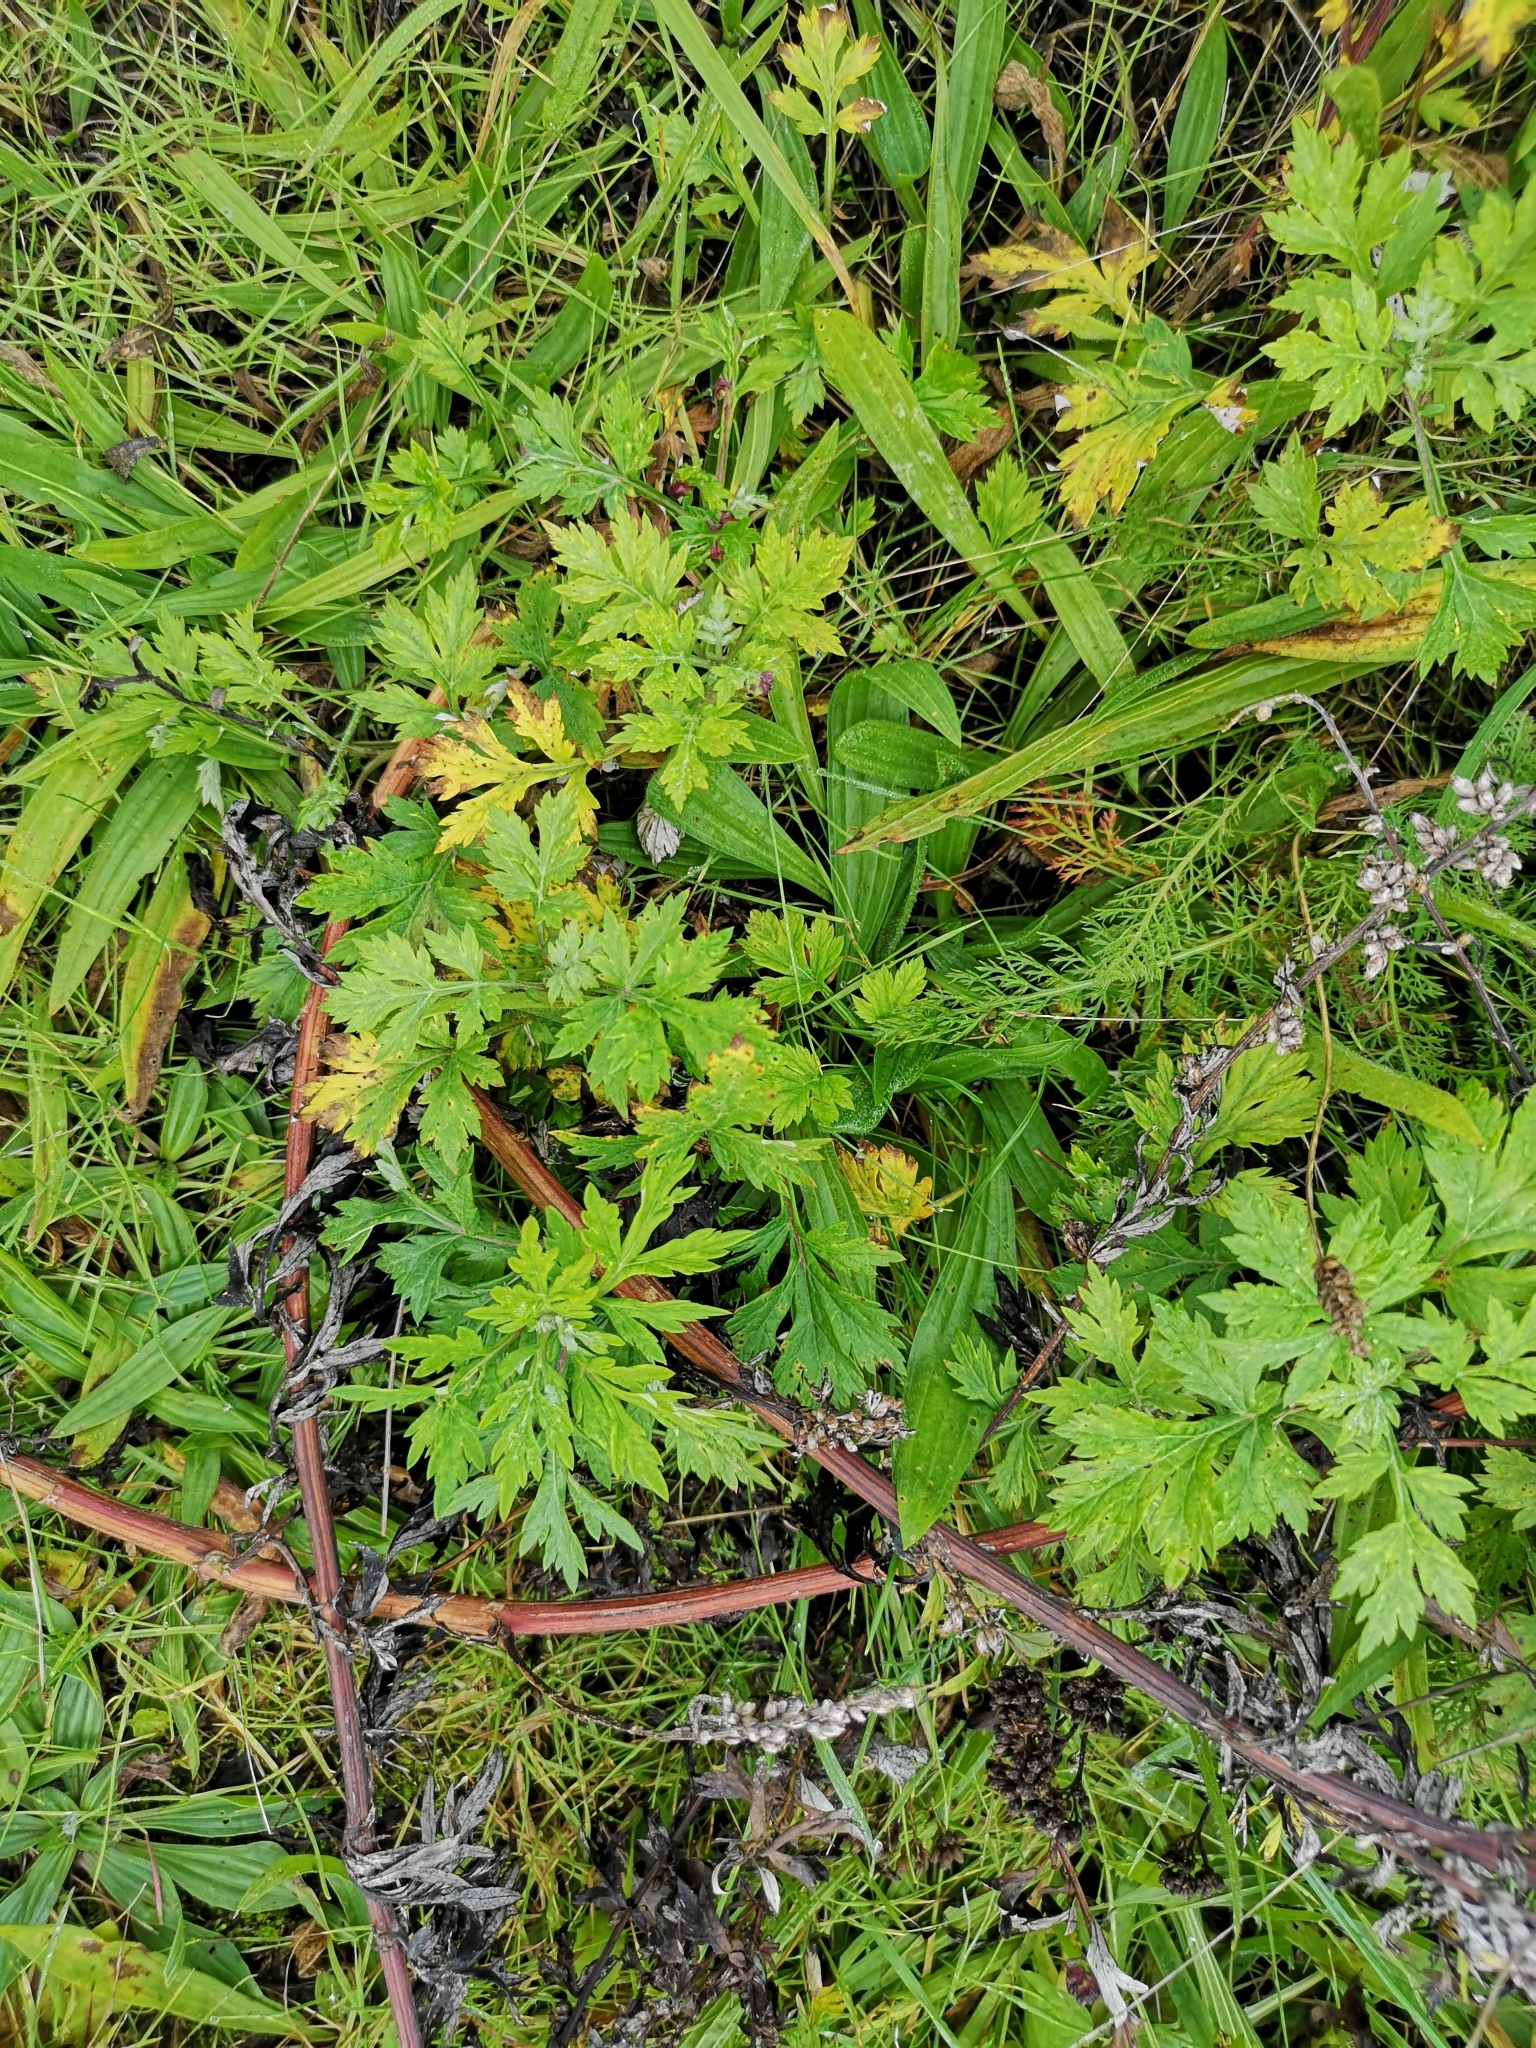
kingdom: Plantae
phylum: Tracheophyta
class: Magnoliopsida
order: Asterales
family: Asteraceae
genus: Artemisia
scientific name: Artemisia vulgaris
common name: Mugwort
